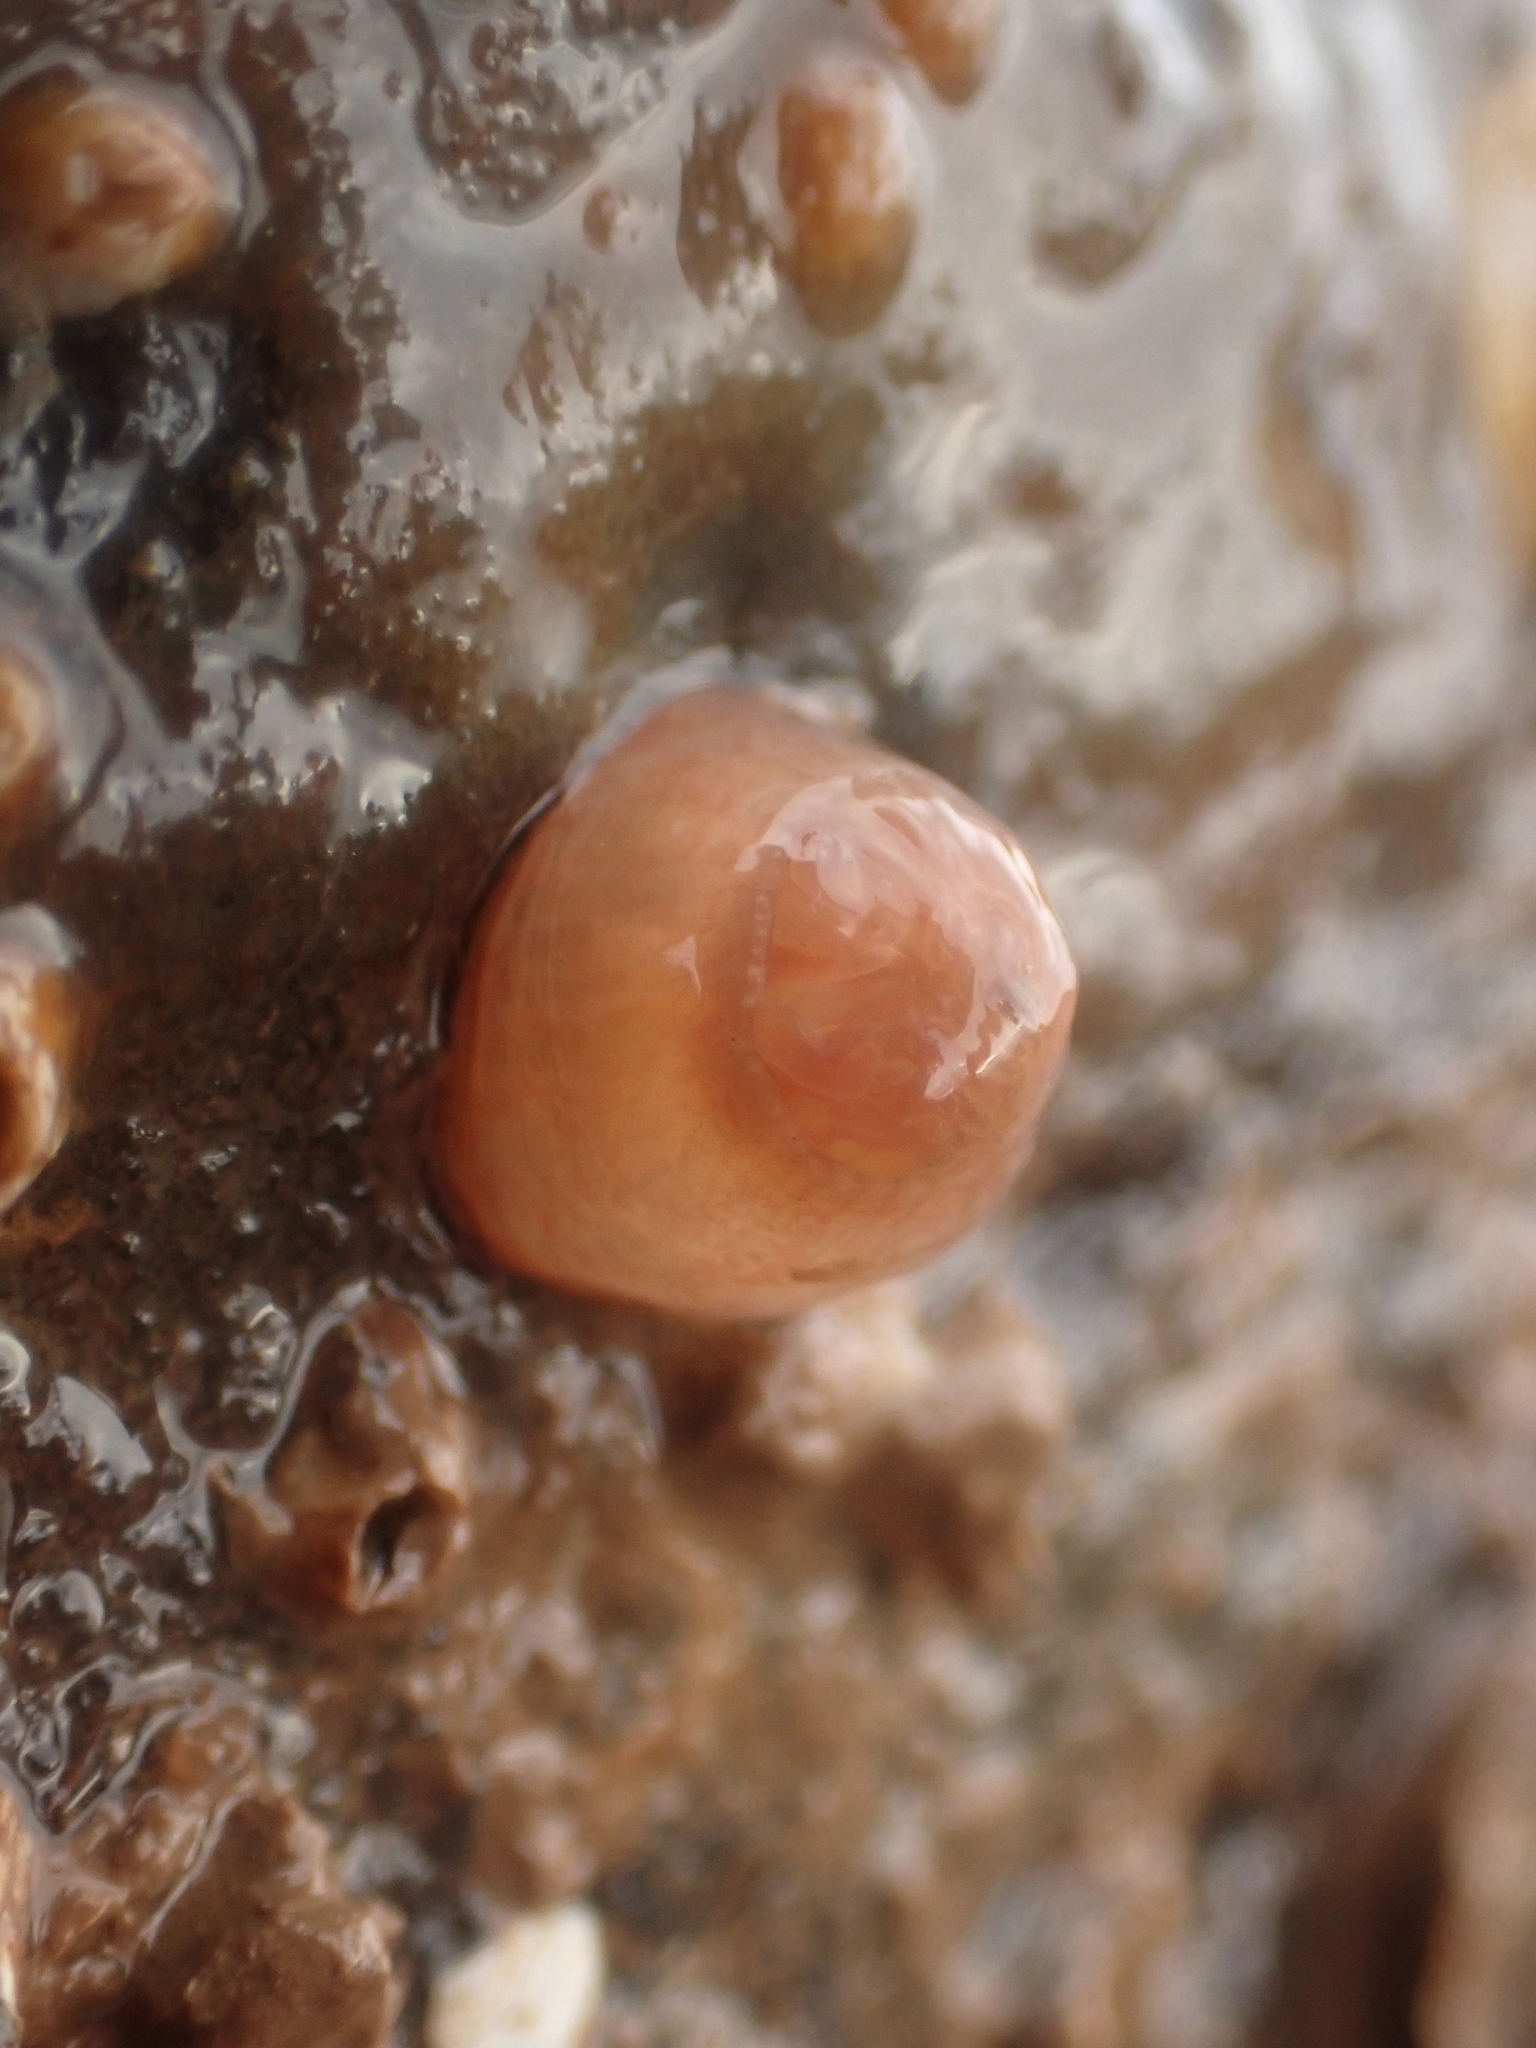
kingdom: Animalia
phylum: Cnidaria
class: Anthozoa
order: Actiniaria
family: Metridiidae
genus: Metridium
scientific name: Metridium senile
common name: Clonal plumose anemone
